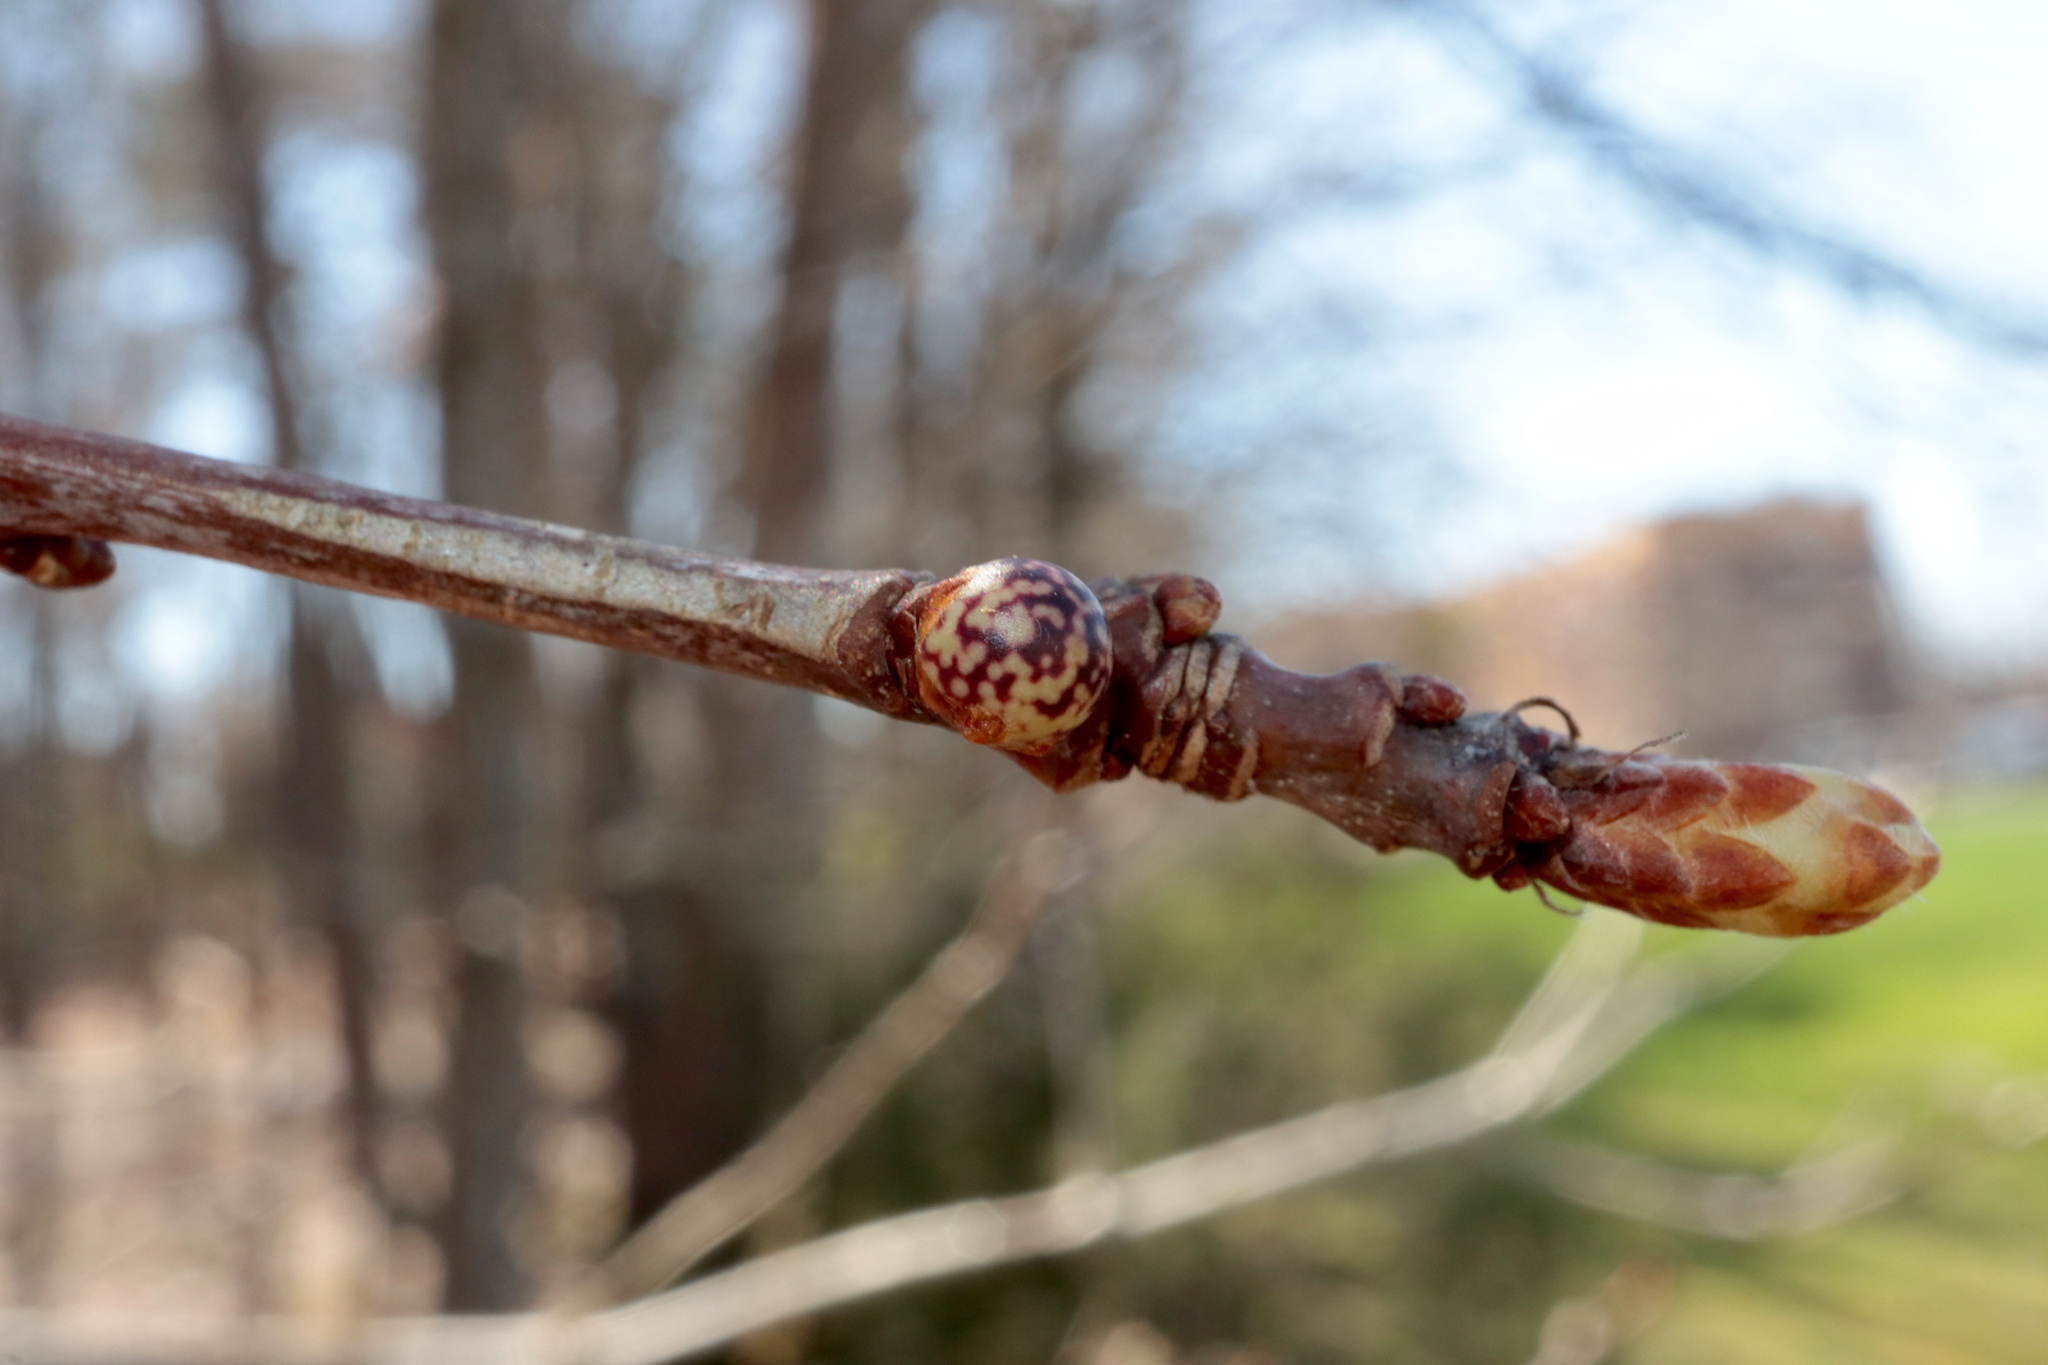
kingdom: Animalia
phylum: Arthropoda
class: Insecta
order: Hymenoptera
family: Cynipidae
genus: Andricus
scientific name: Andricus
